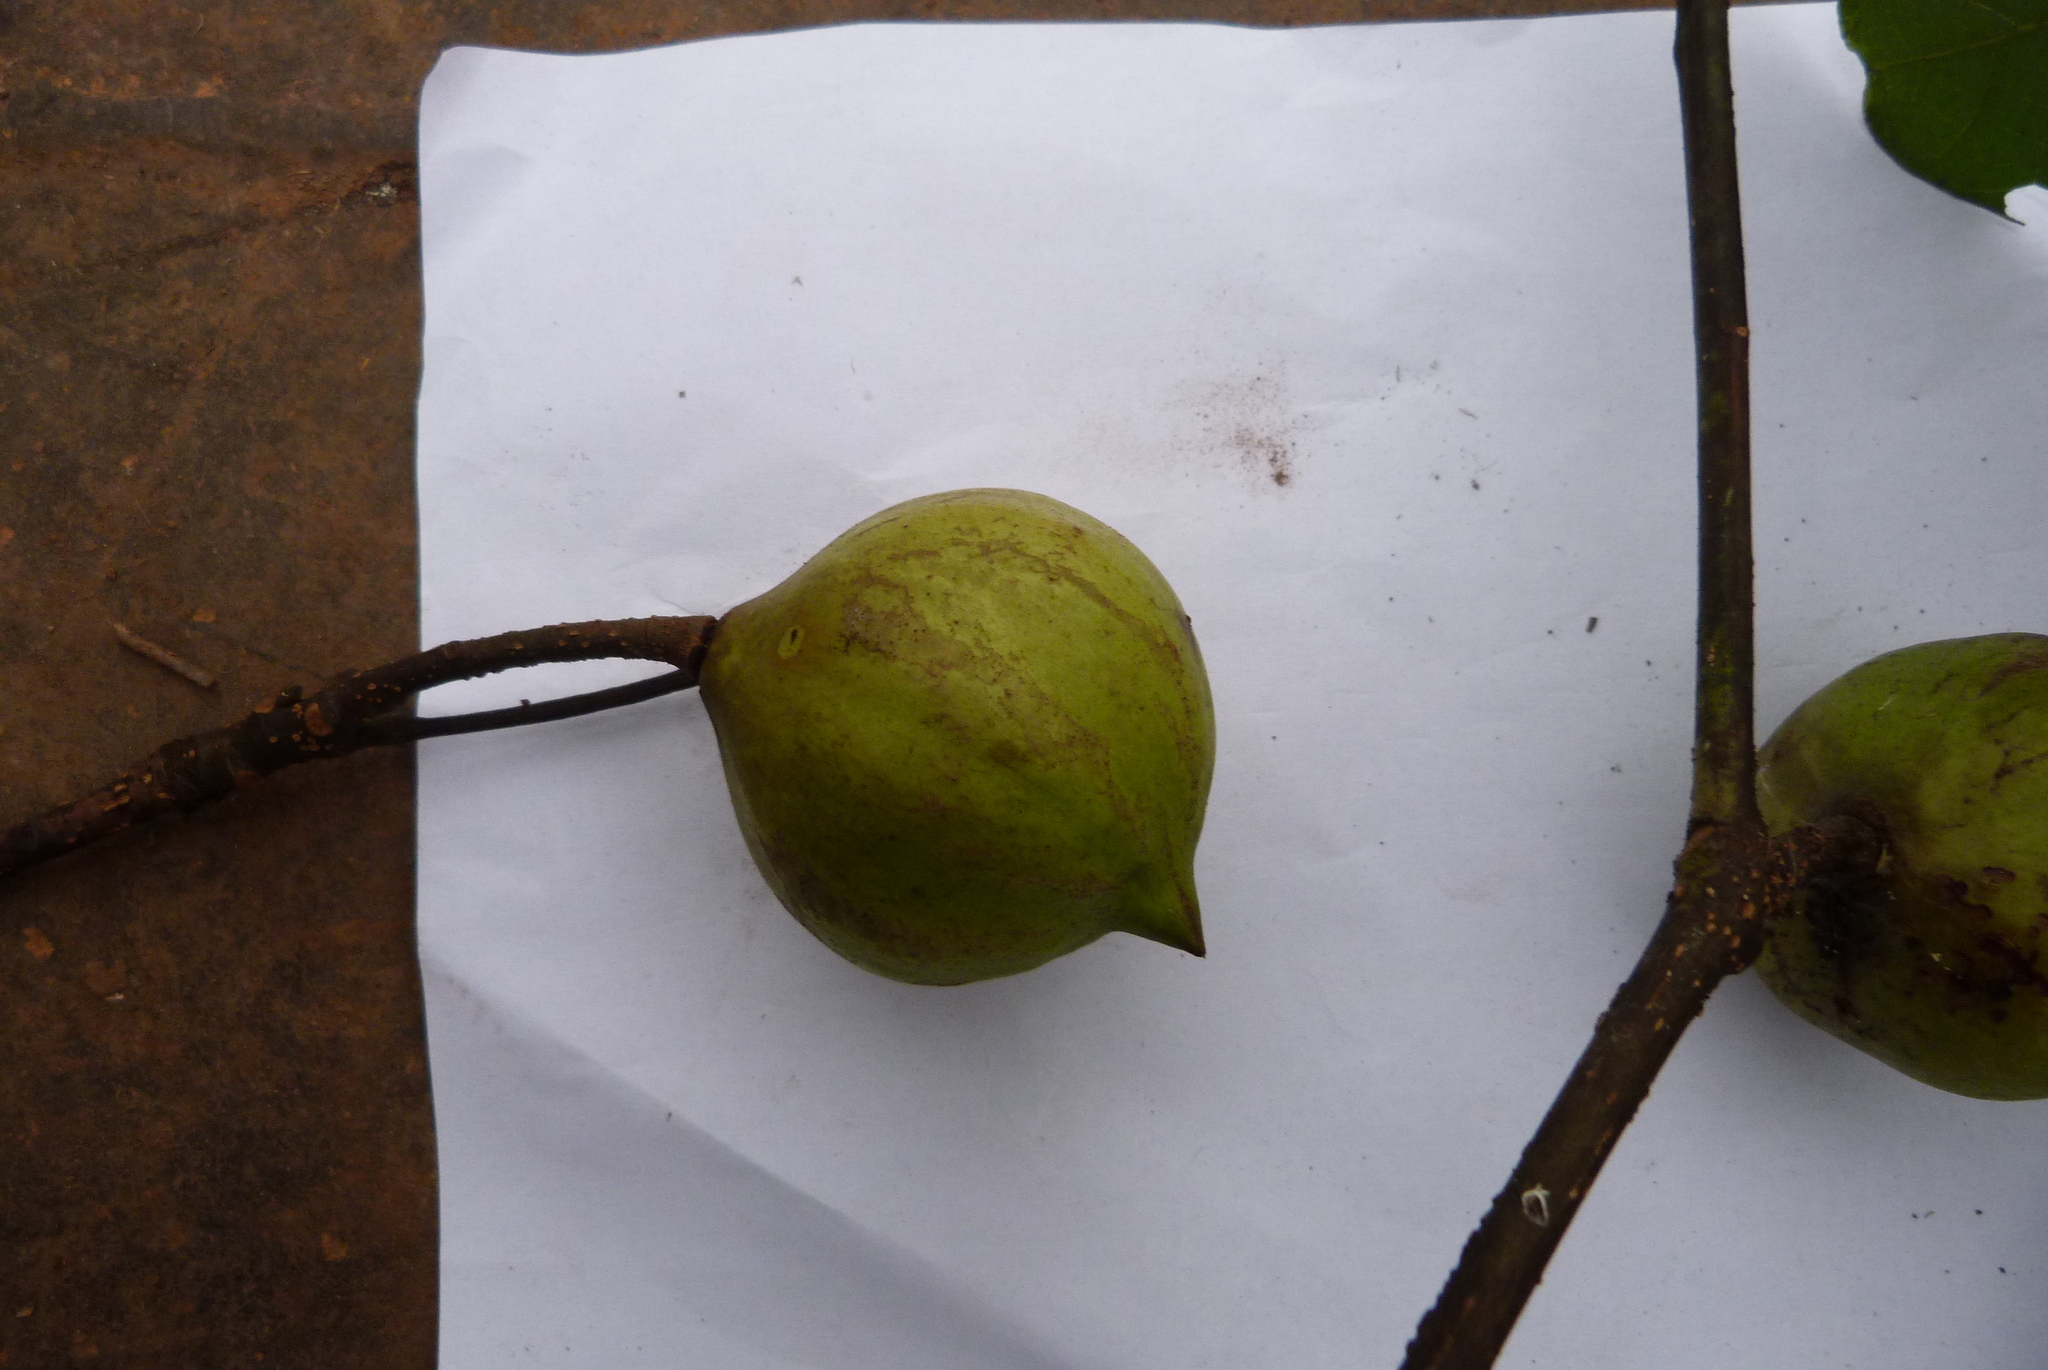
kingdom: Plantae
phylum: Tracheophyta
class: Magnoliopsida
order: Malpighiales
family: Euphorbiaceae
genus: Vernicia
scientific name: Vernicia fordii
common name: Tungoil tree
